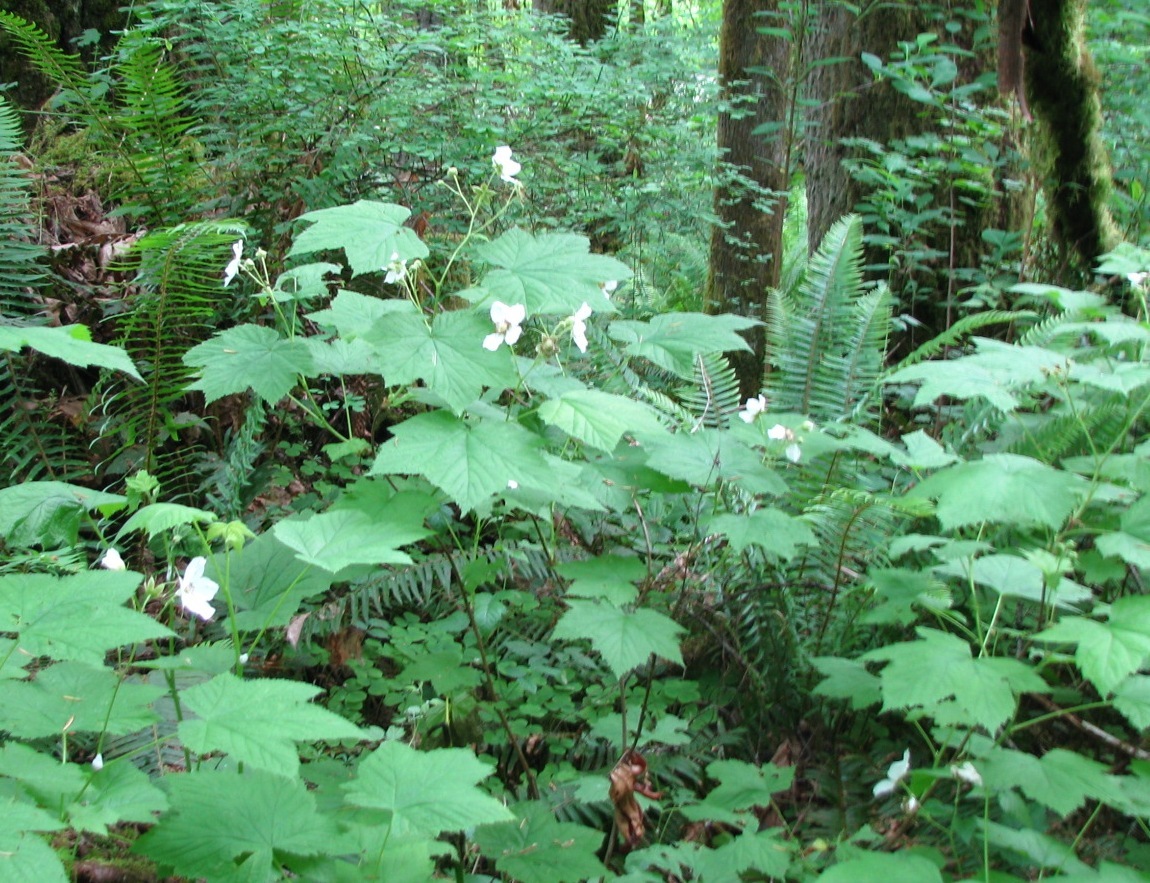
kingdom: Plantae
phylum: Tracheophyta
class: Magnoliopsida
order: Rosales
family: Rosaceae
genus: Rubus
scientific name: Rubus parviflorus
